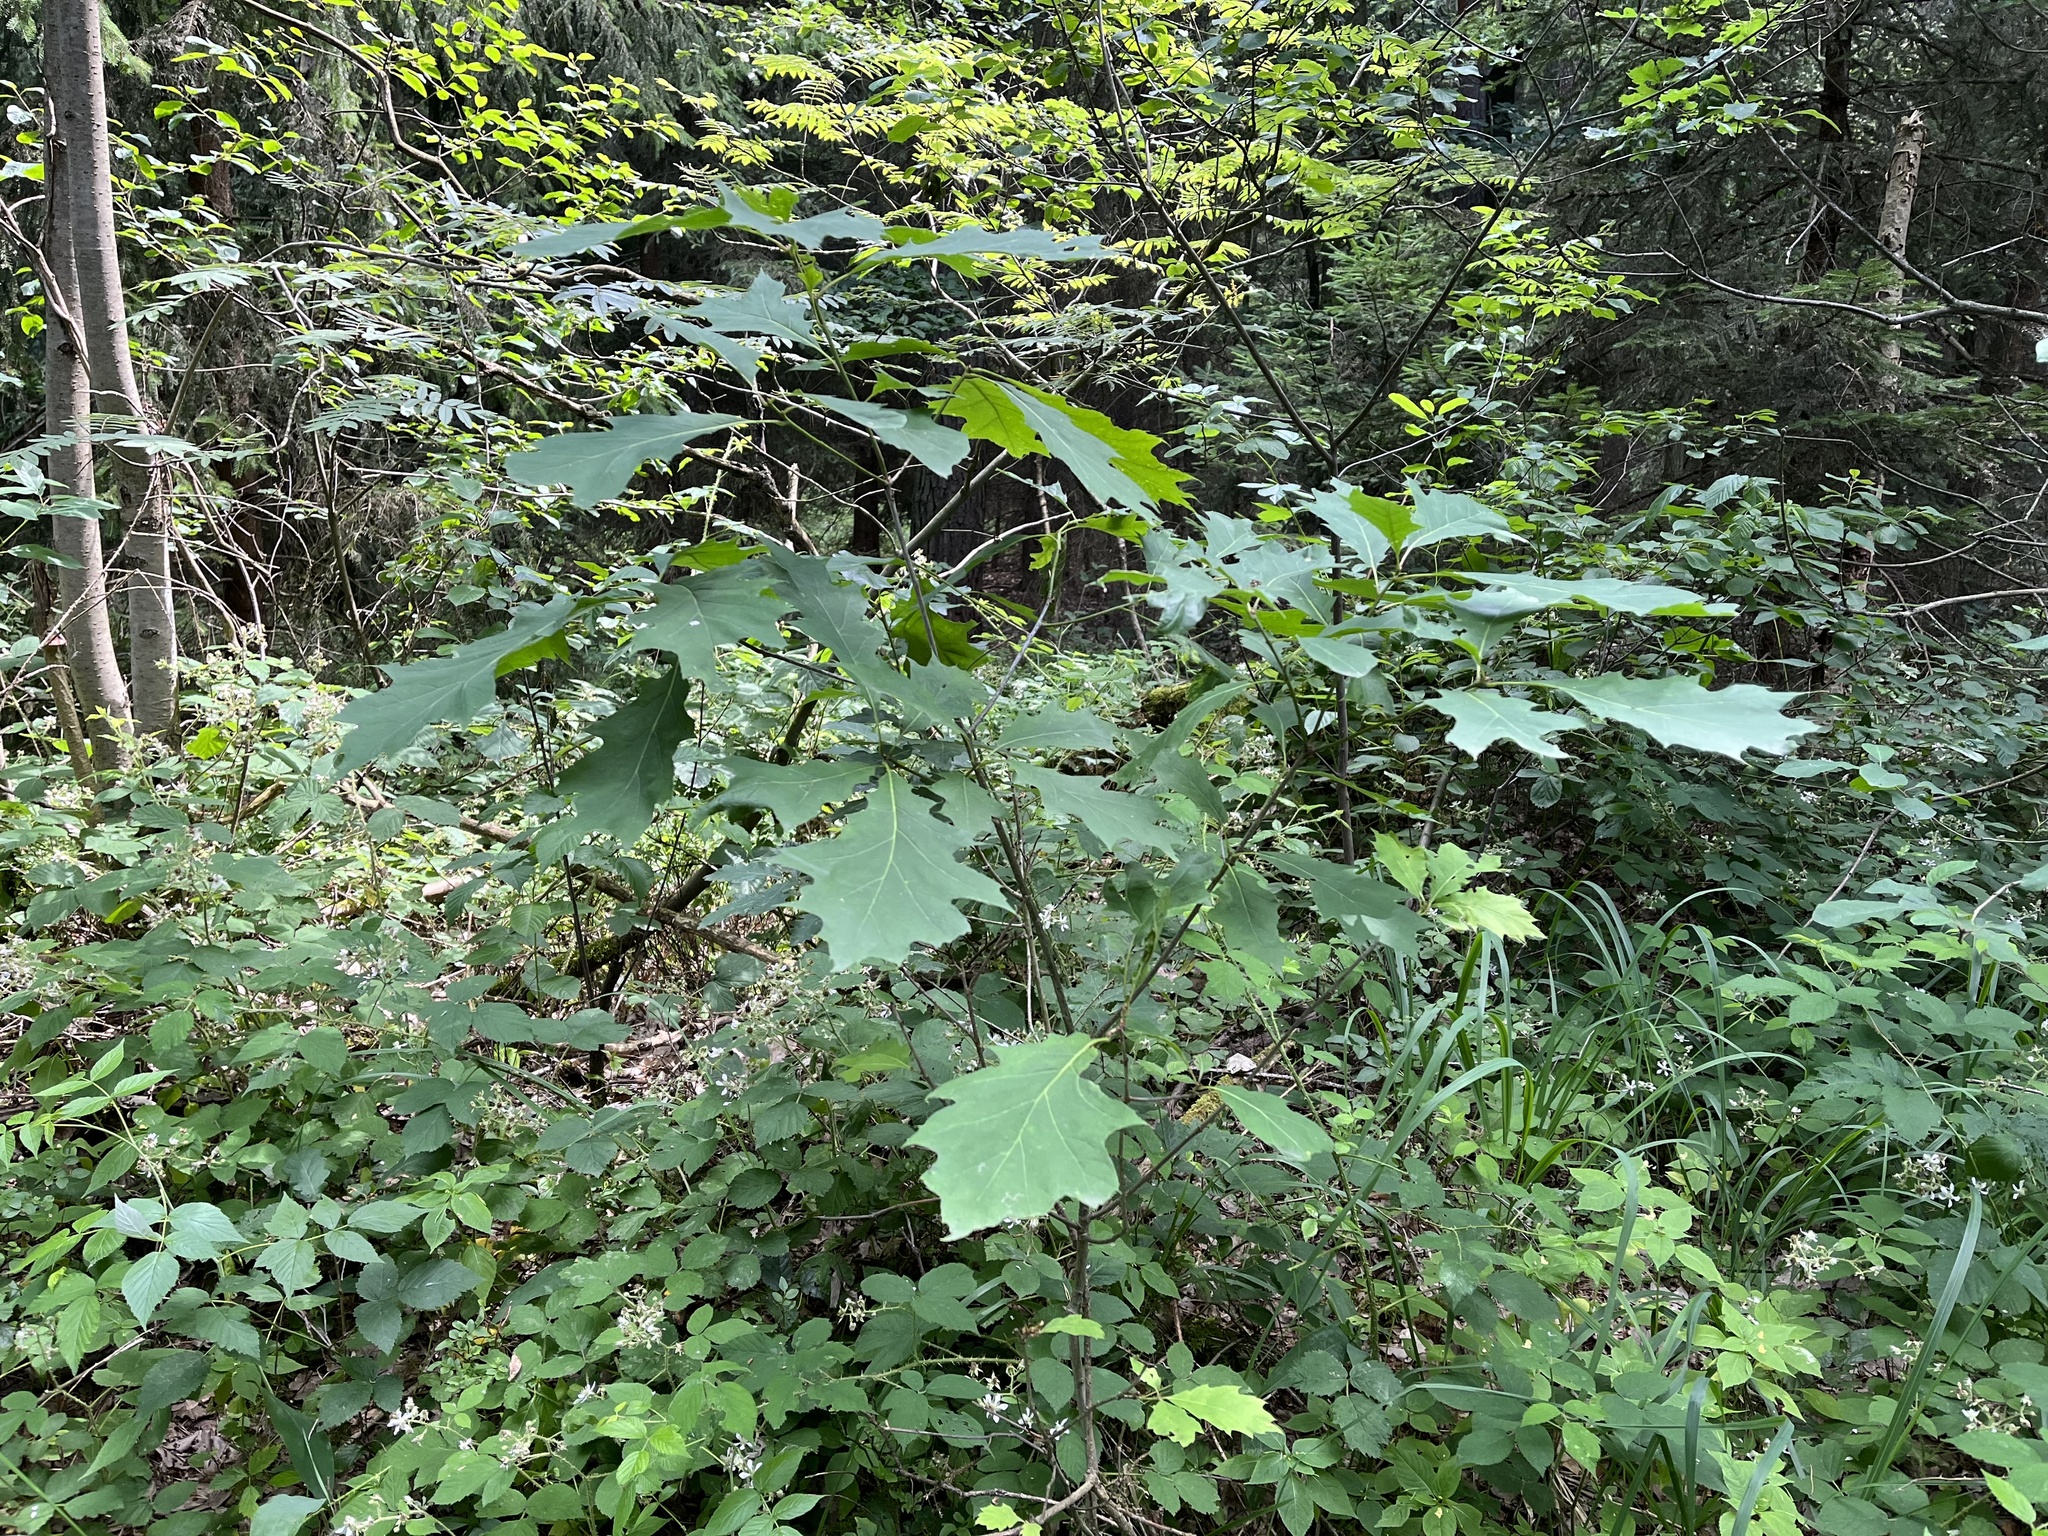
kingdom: Plantae
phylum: Tracheophyta
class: Magnoliopsida
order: Fagales
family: Fagaceae
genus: Quercus
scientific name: Quercus rubra
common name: Red oak
